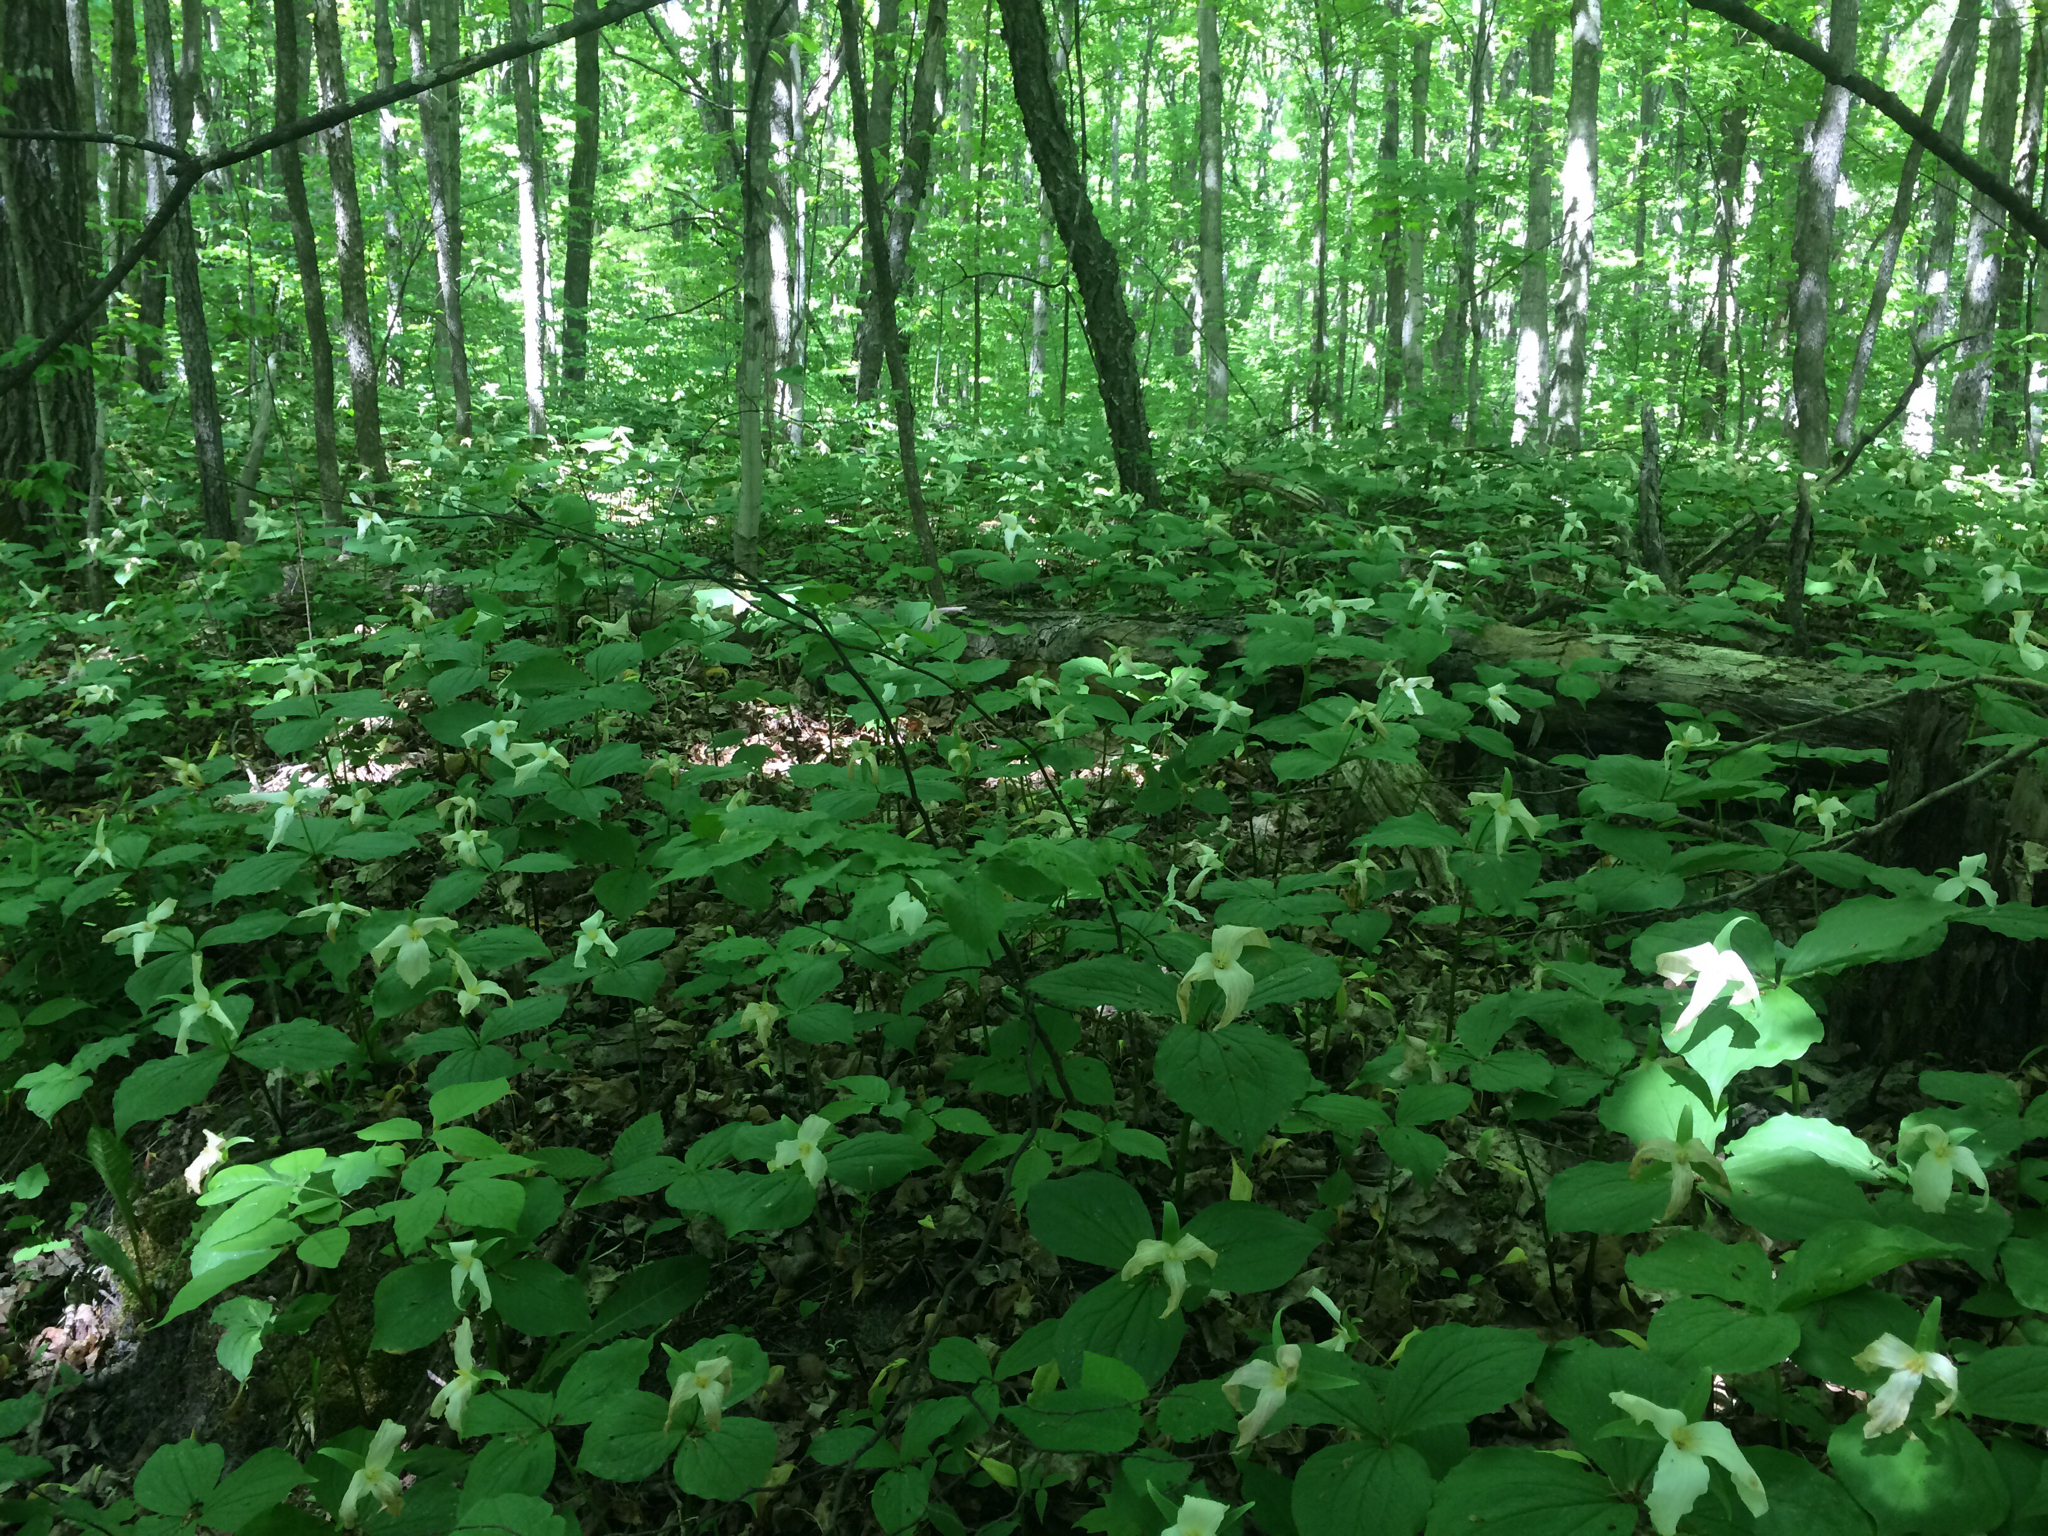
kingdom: Plantae
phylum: Tracheophyta
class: Liliopsida
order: Liliales
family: Melanthiaceae
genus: Trillium
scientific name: Trillium grandiflorum
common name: Great white trillium
